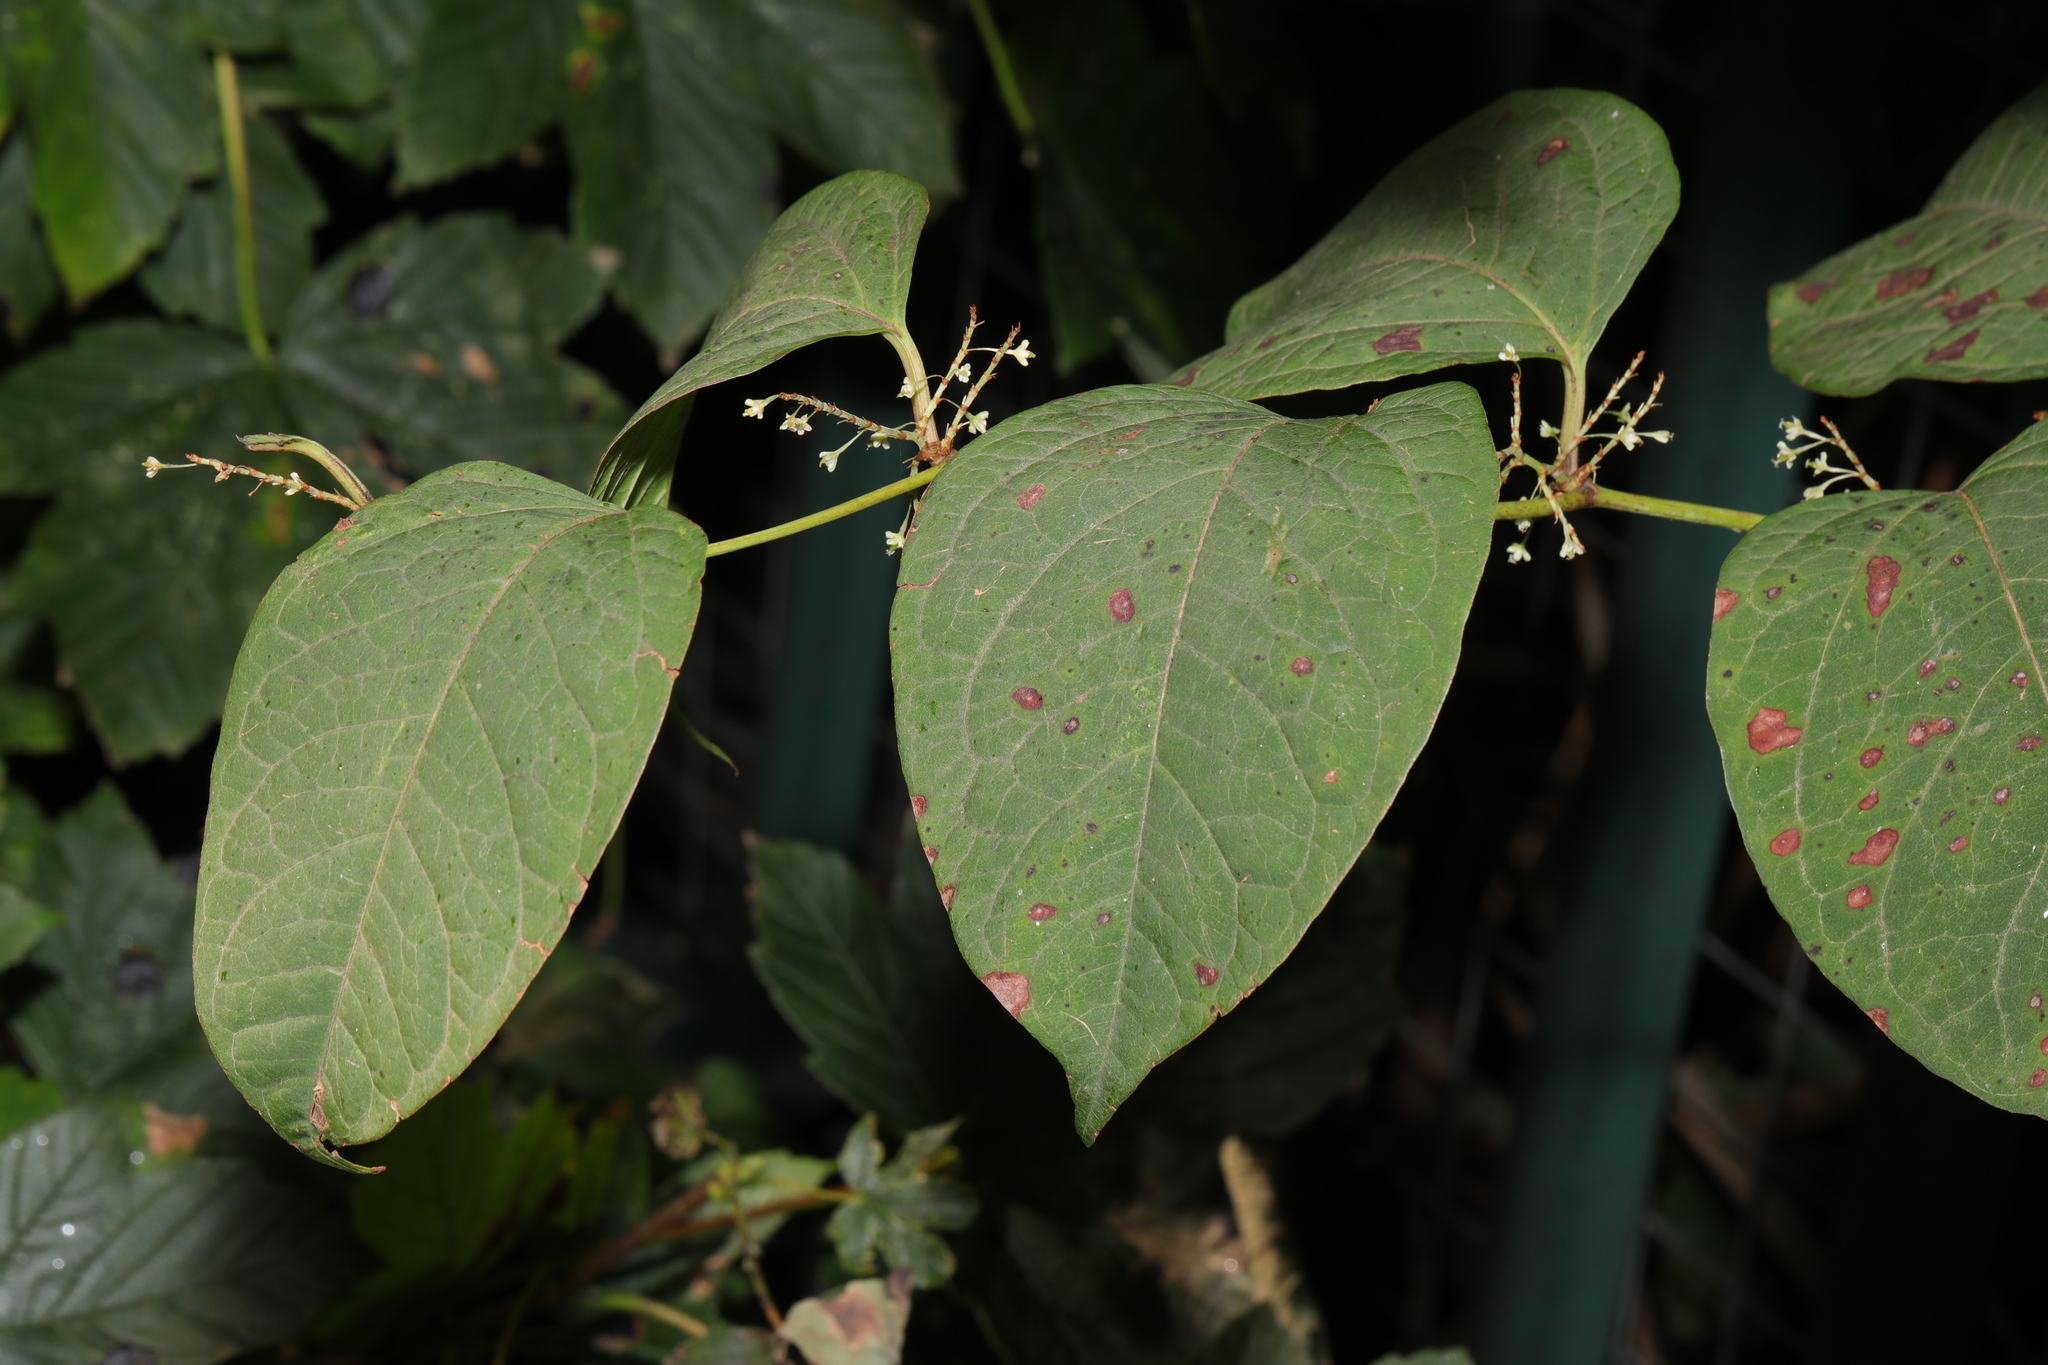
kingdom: Plantae
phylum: Tracheophyta
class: Magnoliopsida
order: Caryophyllales
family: Polygonaceae
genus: Reynoutria
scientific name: Reynoutria japonica
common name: Japanese knotweed
